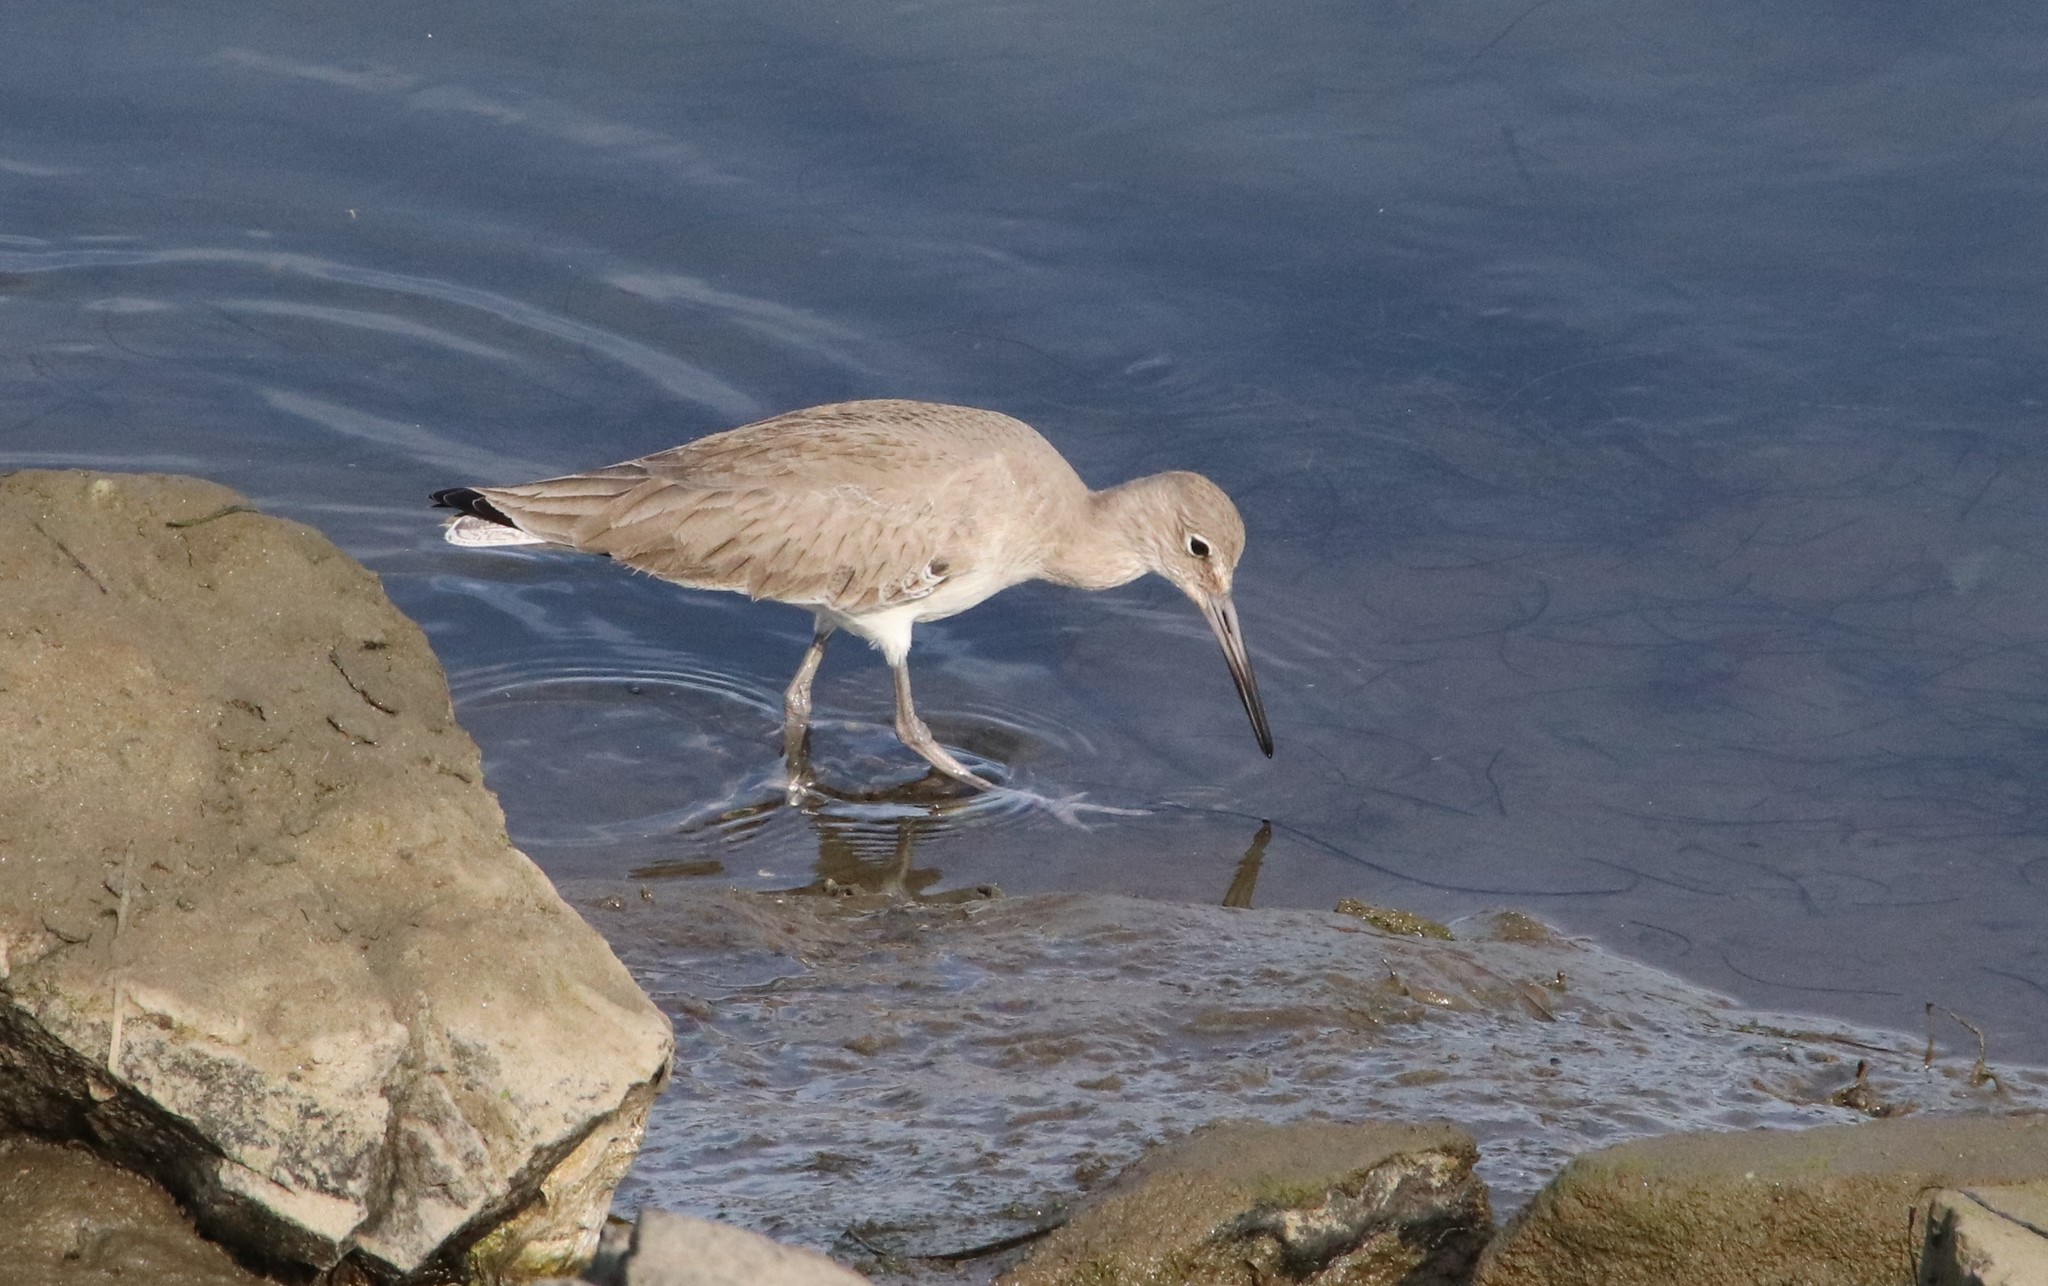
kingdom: Animalia
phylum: Chordata
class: Aves
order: Charadriiformes
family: Scolopacidae
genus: Tringa
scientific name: Tringa semipalmata
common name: Willet
